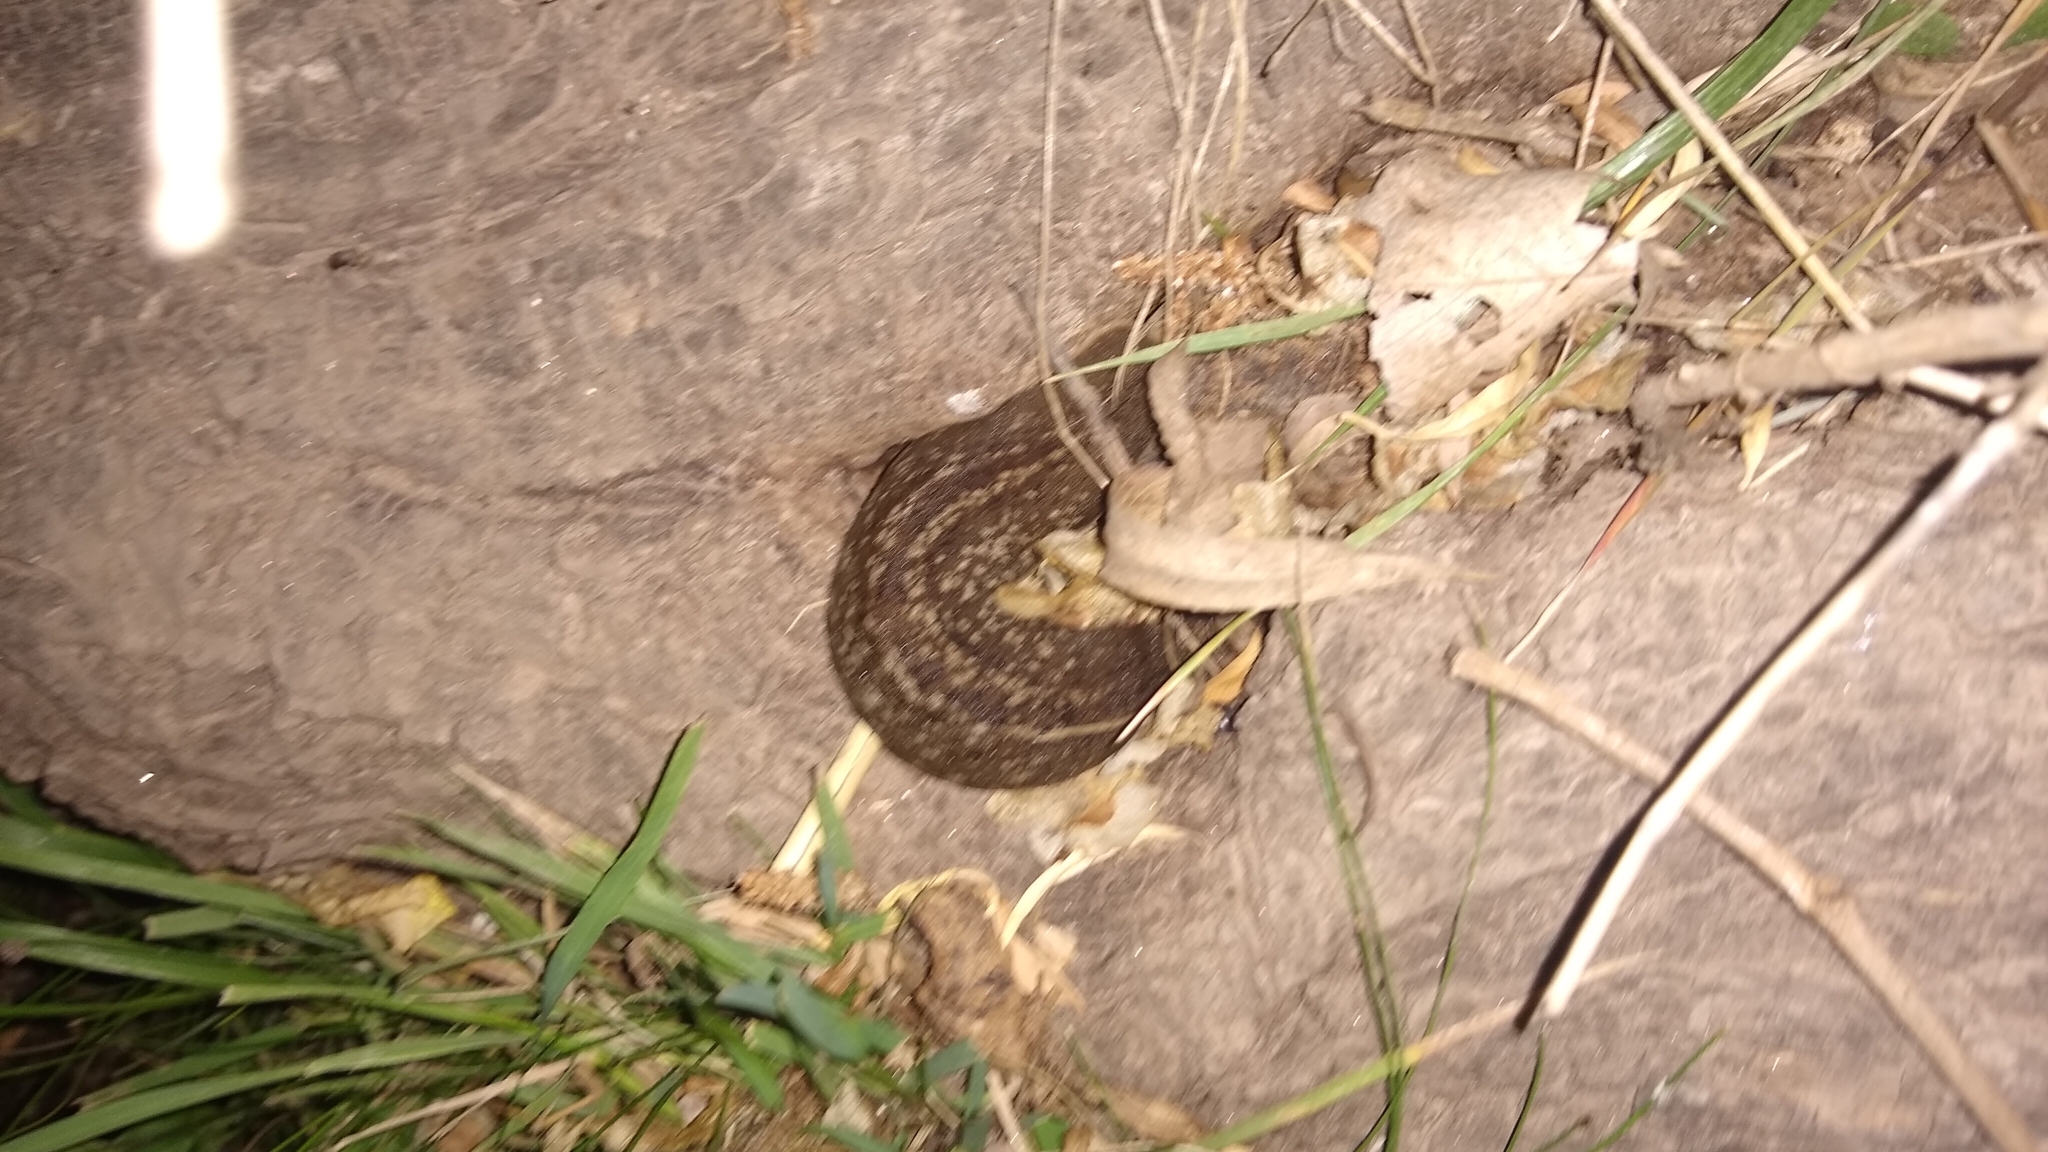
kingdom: Animalia
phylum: Mollusca
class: Gastropoda
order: Systellommatophora
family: Veronicellidae
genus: Phyllocaulis
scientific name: Phyllocaulis soleiformis
